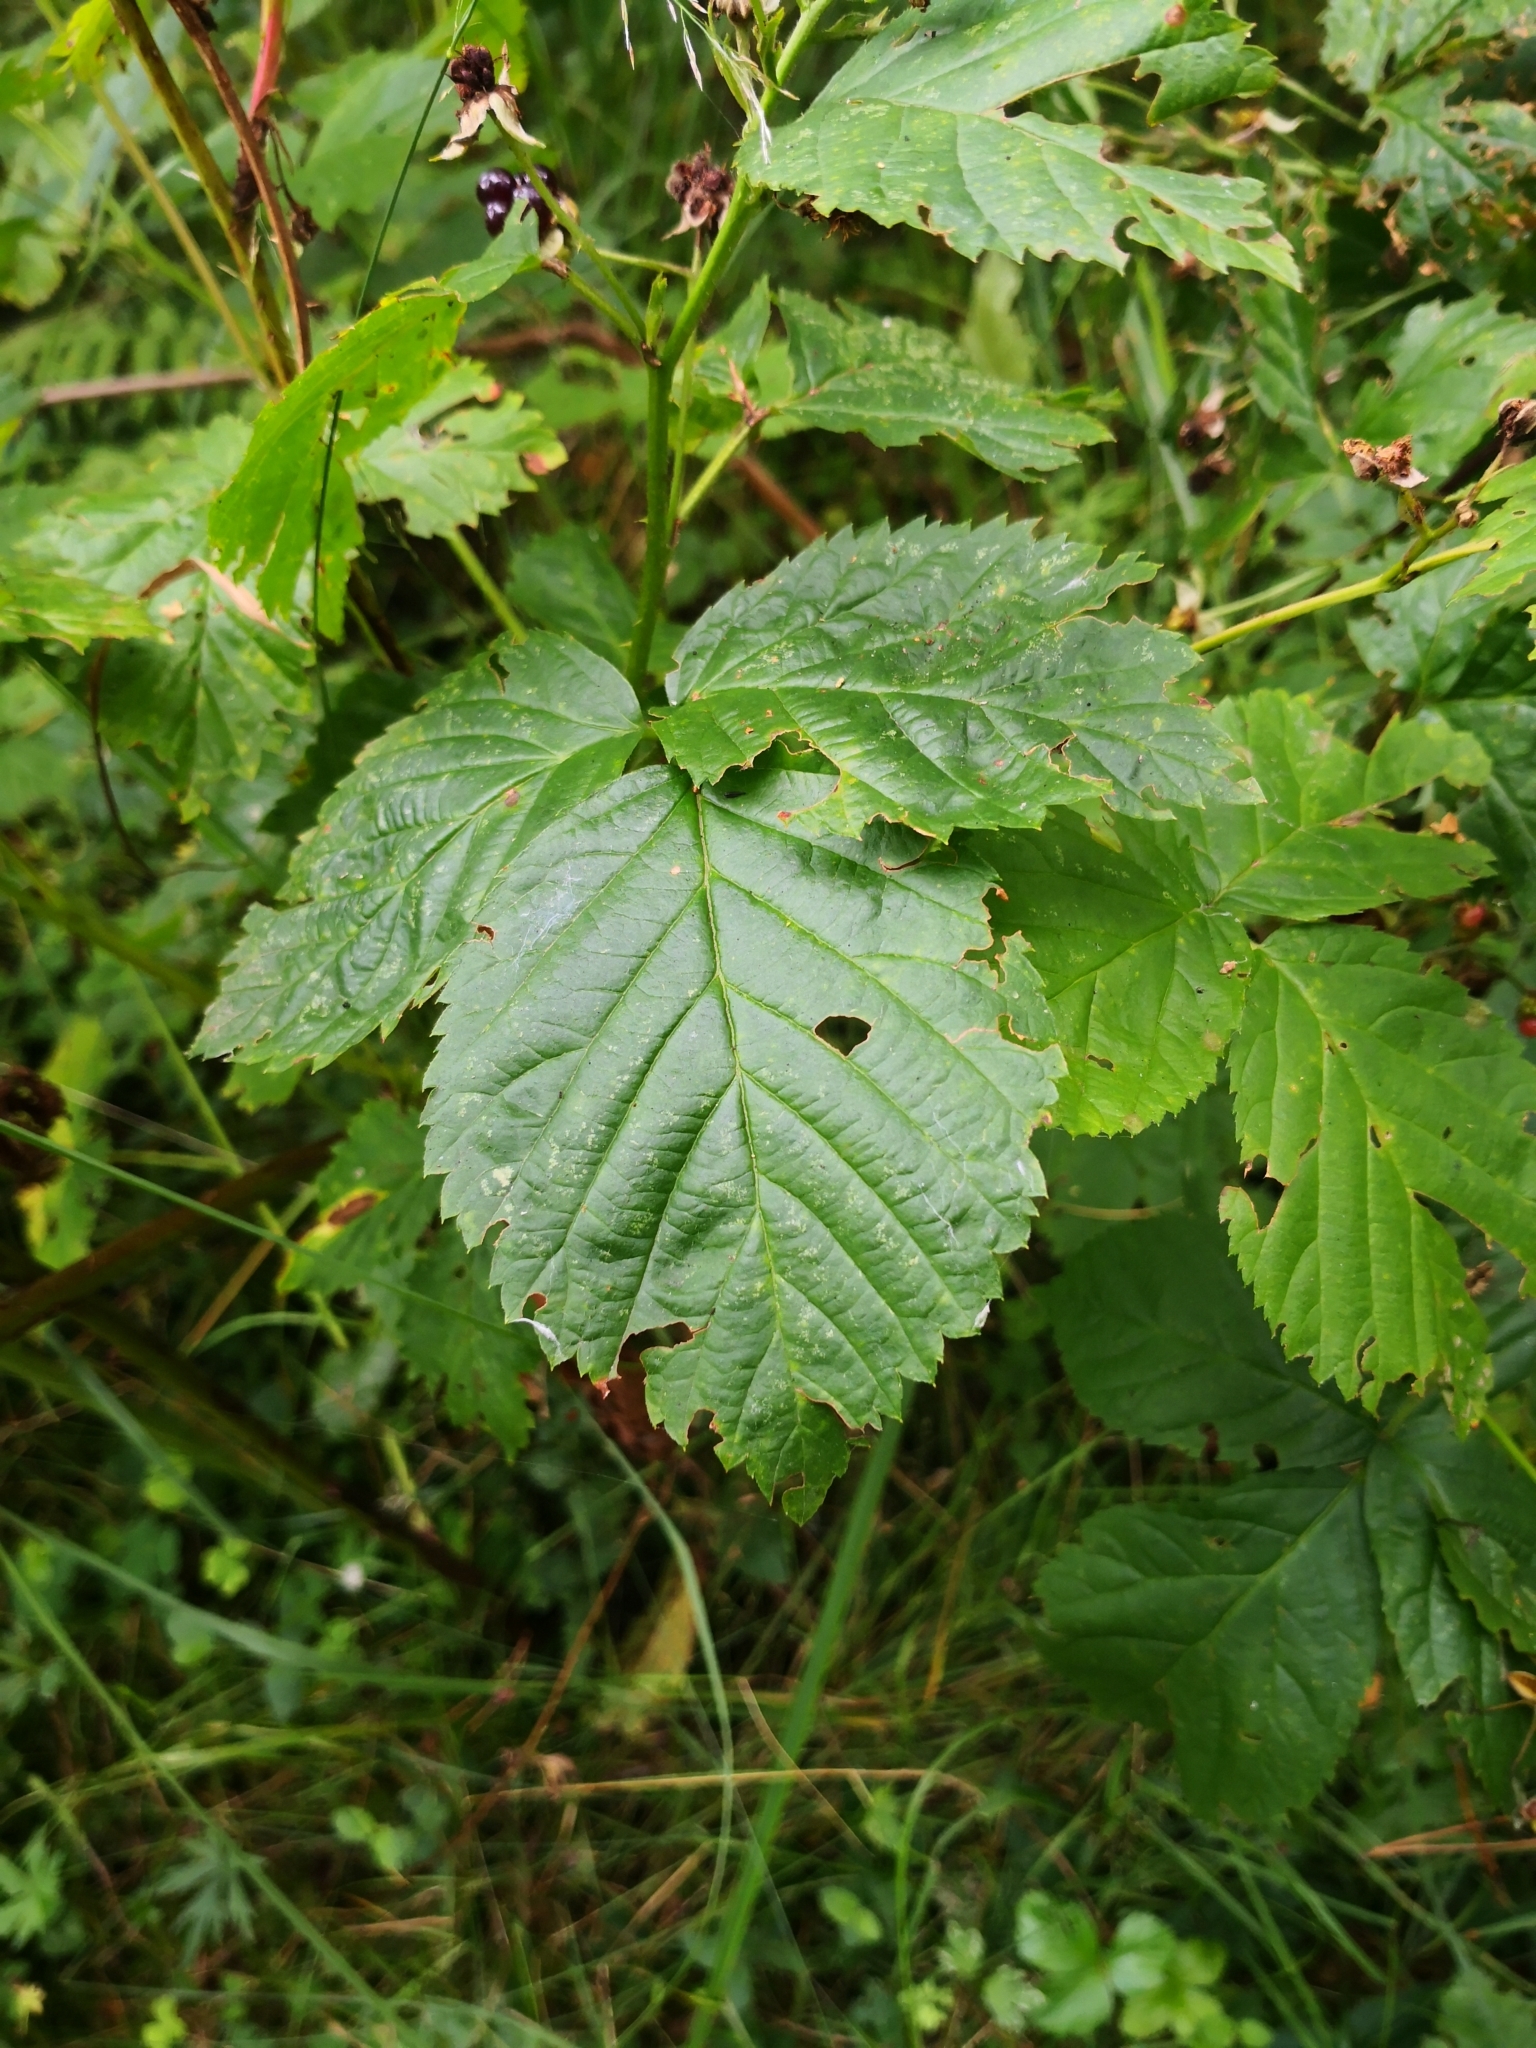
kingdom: Plantae
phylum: Tracheophyta
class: Magnoliopsida
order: Rosales
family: Rosaceae
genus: Rubus
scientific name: Rubus polonicus
